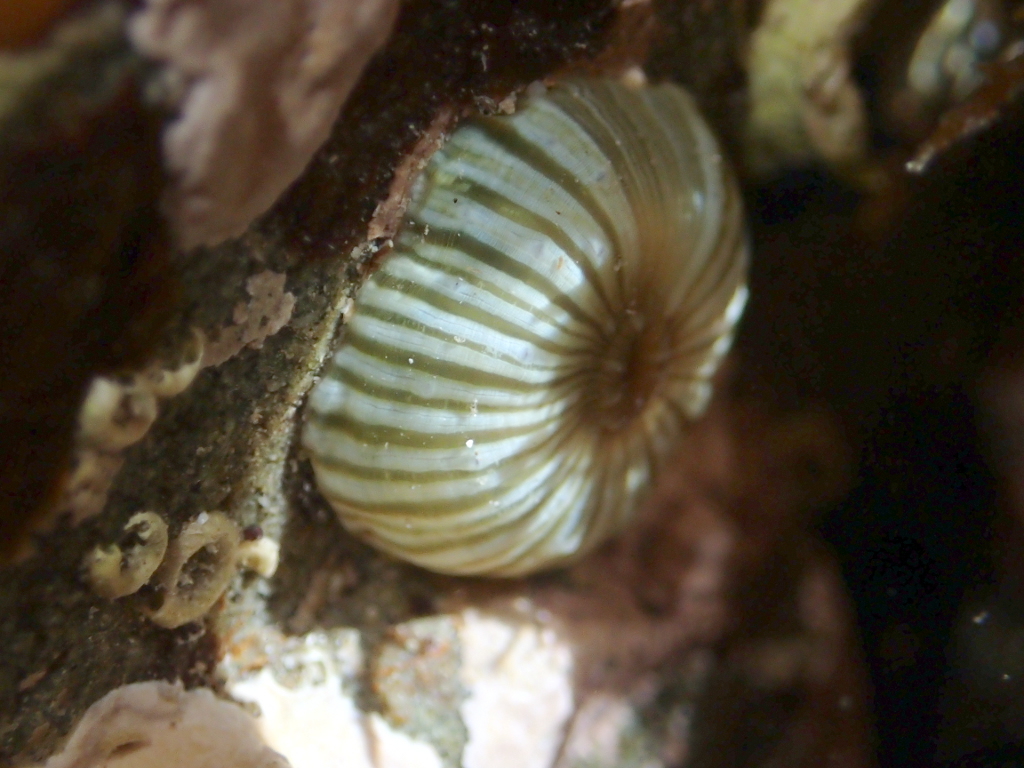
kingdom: Animalia
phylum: Cnidaria
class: Anthozoa
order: Actiniaria
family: Sagartiidae
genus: Anthothoe
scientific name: Anthothoe albocincta
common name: Orange striped anemone
